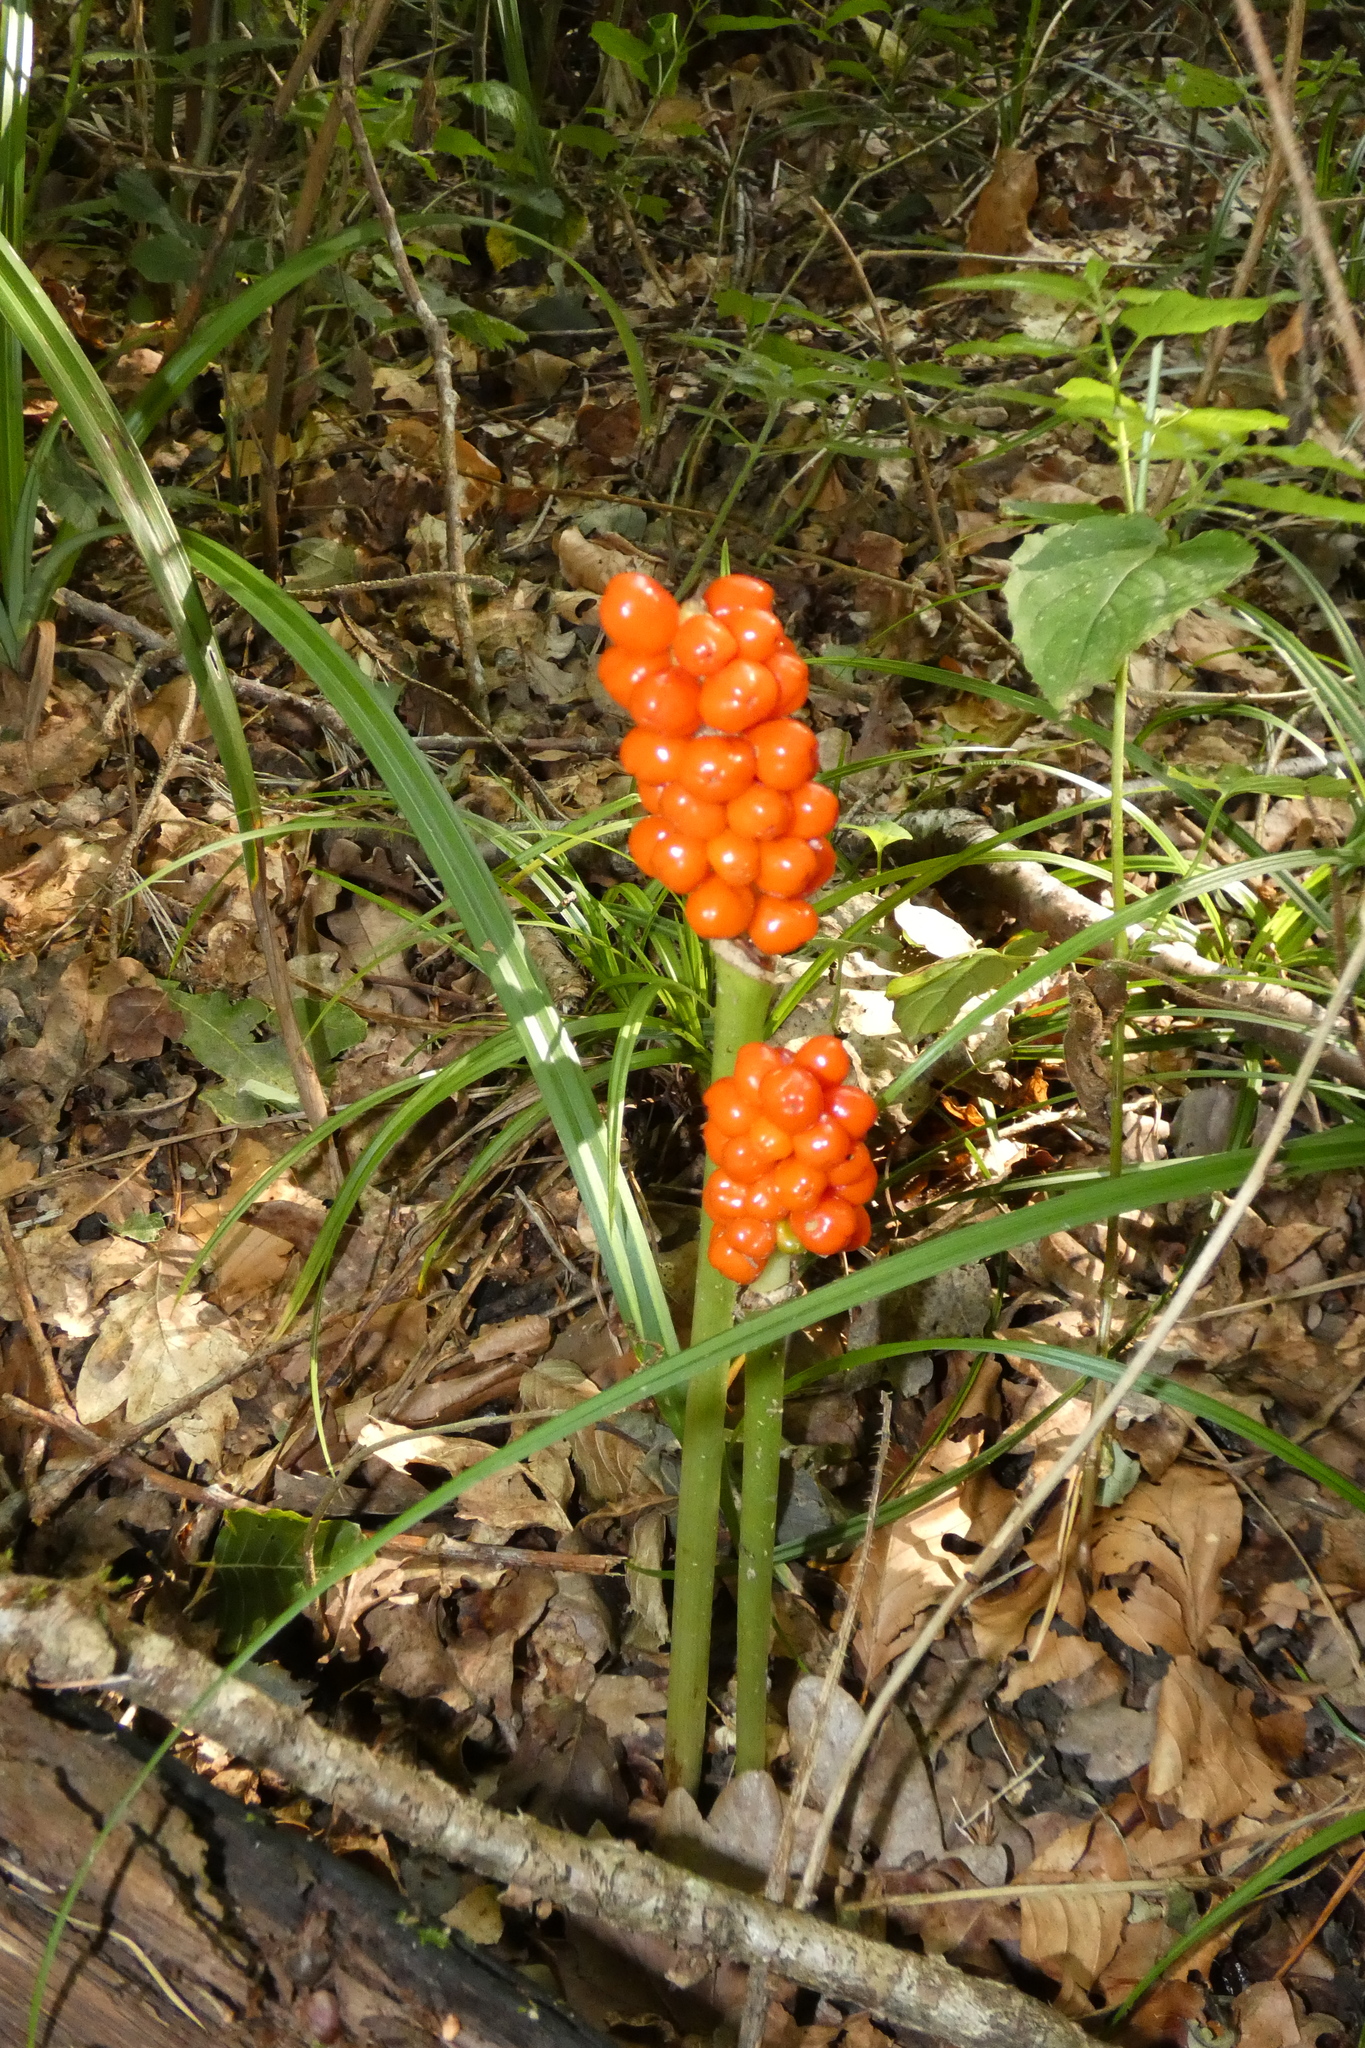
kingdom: Plantae
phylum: Tracheophyta
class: Liliopsida
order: Alismatales
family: Araceae
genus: Arum
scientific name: Arum maculatum
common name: Lords-and-ladies
